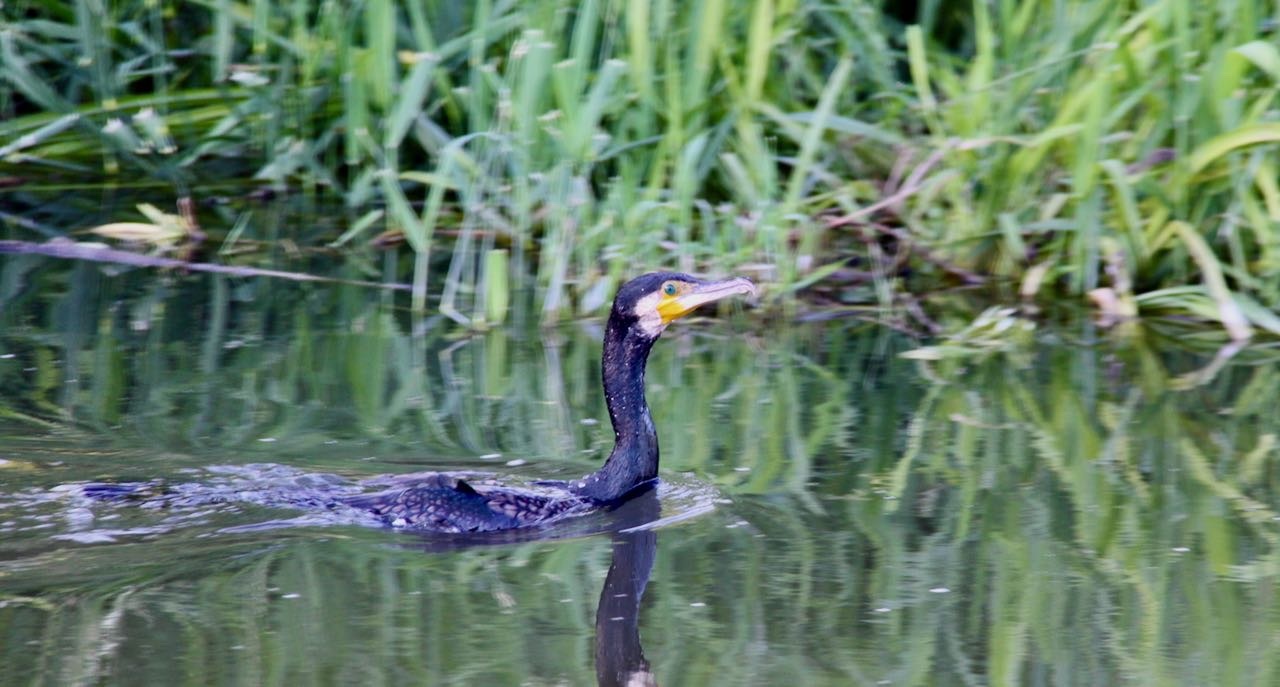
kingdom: Animalia
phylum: Chordata
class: Aves
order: Suliformes
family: Phalacrocoracidae
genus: Phalacrocorax
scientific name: Phalacrocorax carbo
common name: Great cormorant
